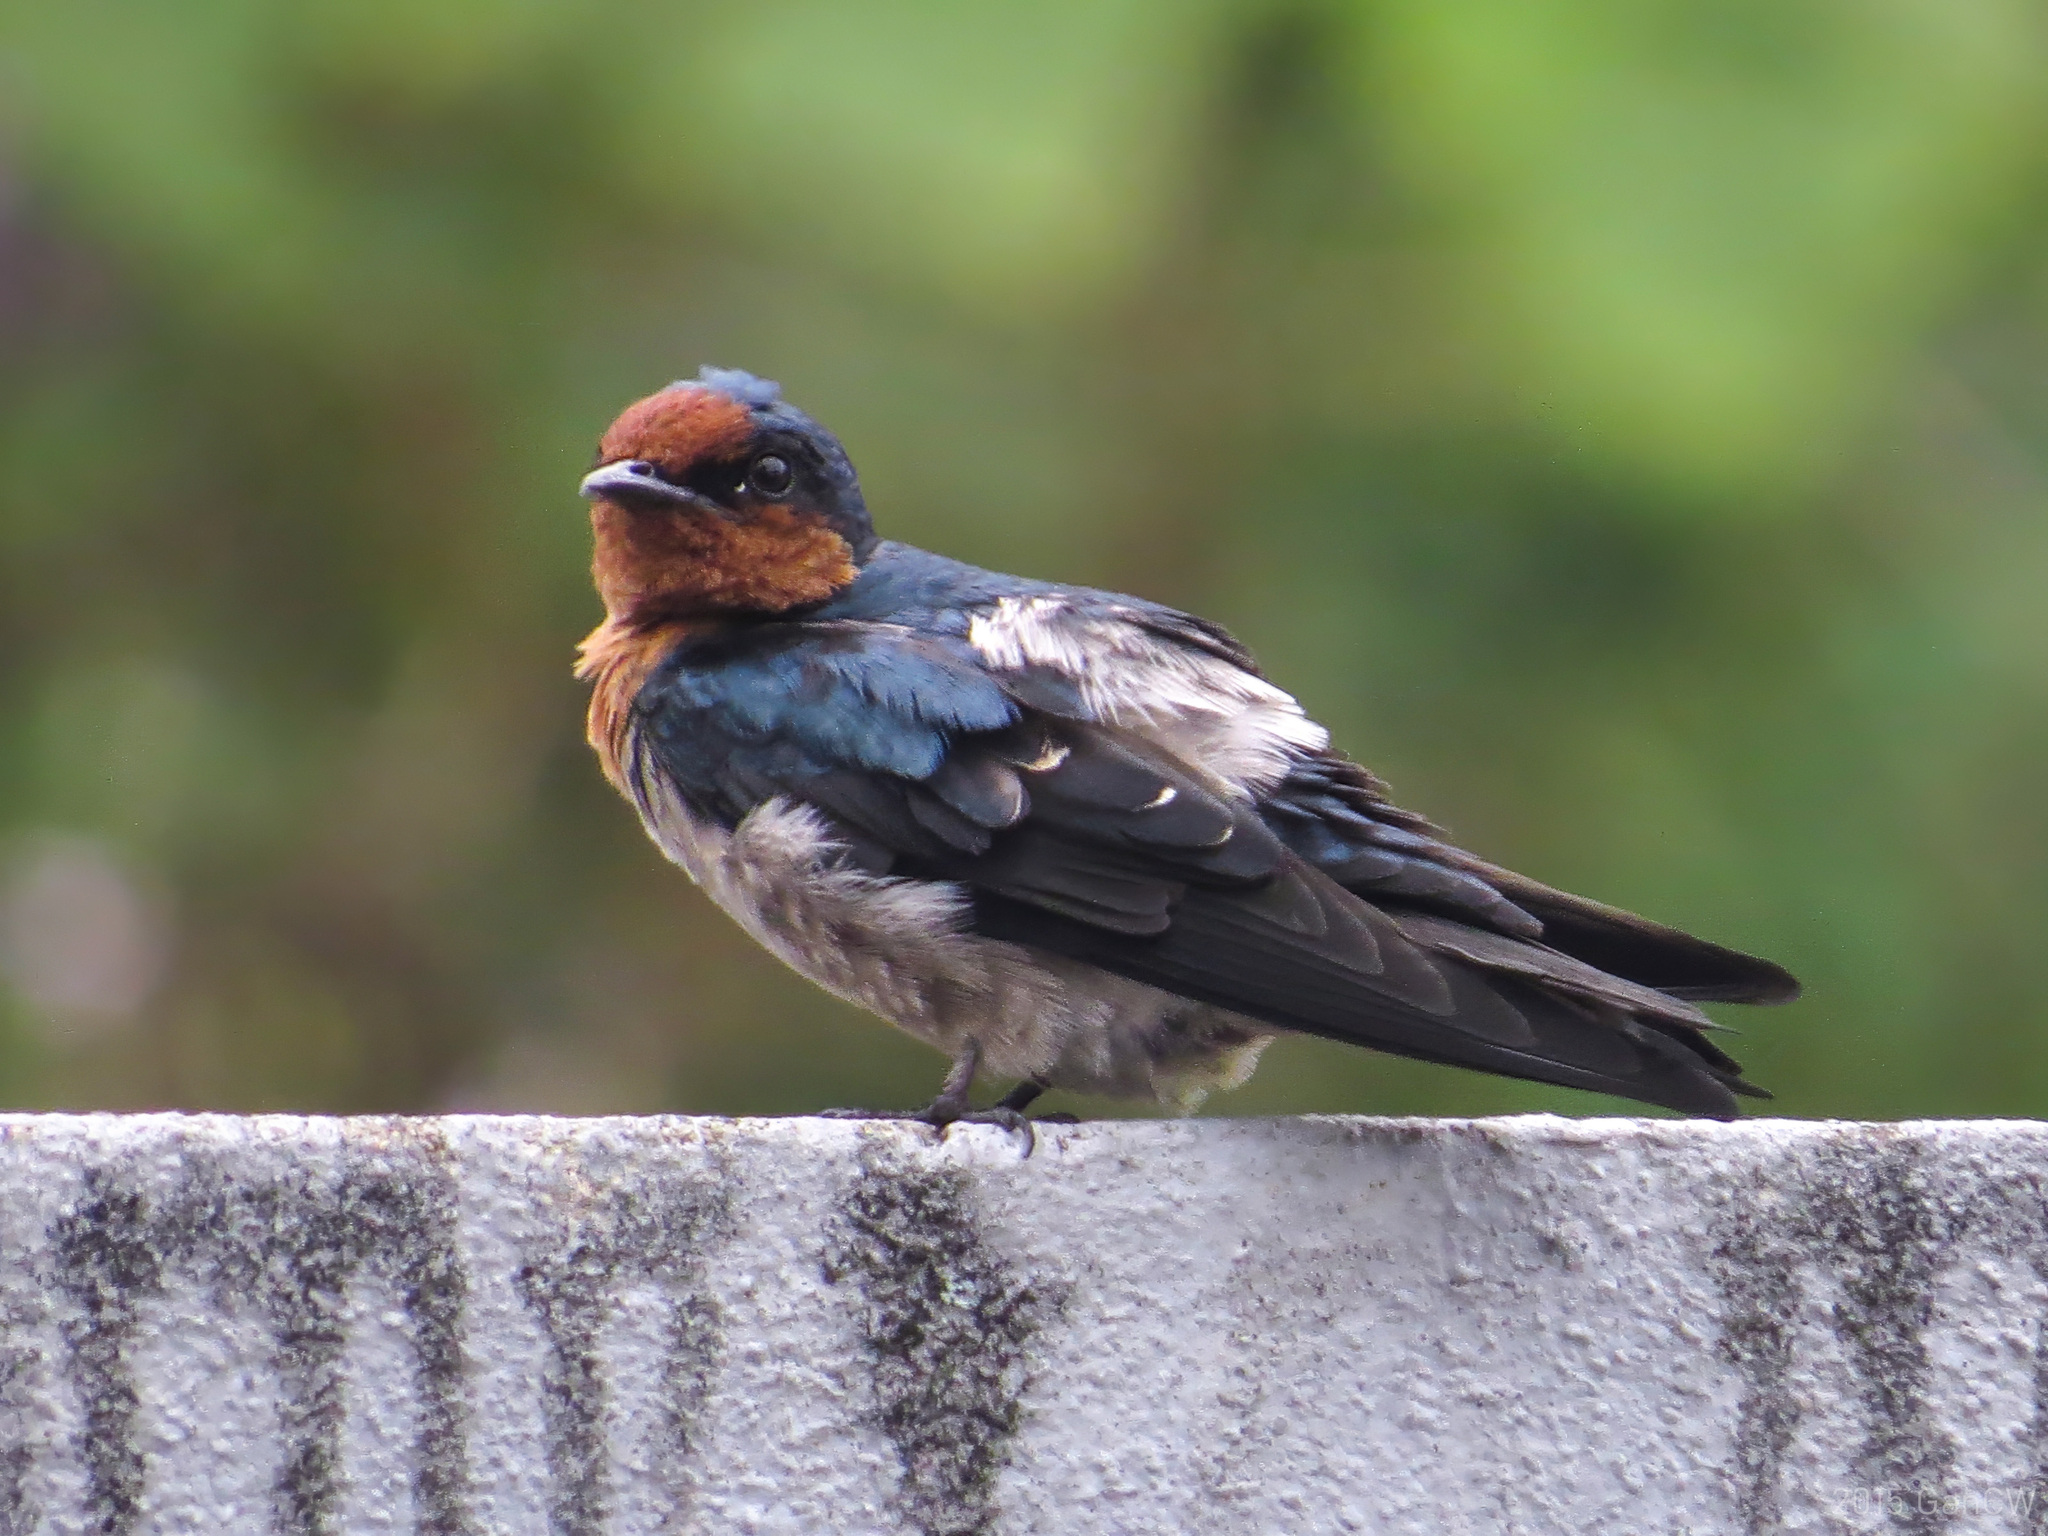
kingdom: Animalia
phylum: Chordata
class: Aves
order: Passeriformes
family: Hirundinidae
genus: Hirundo
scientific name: Hirundo tahitica
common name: Pacific swallow
